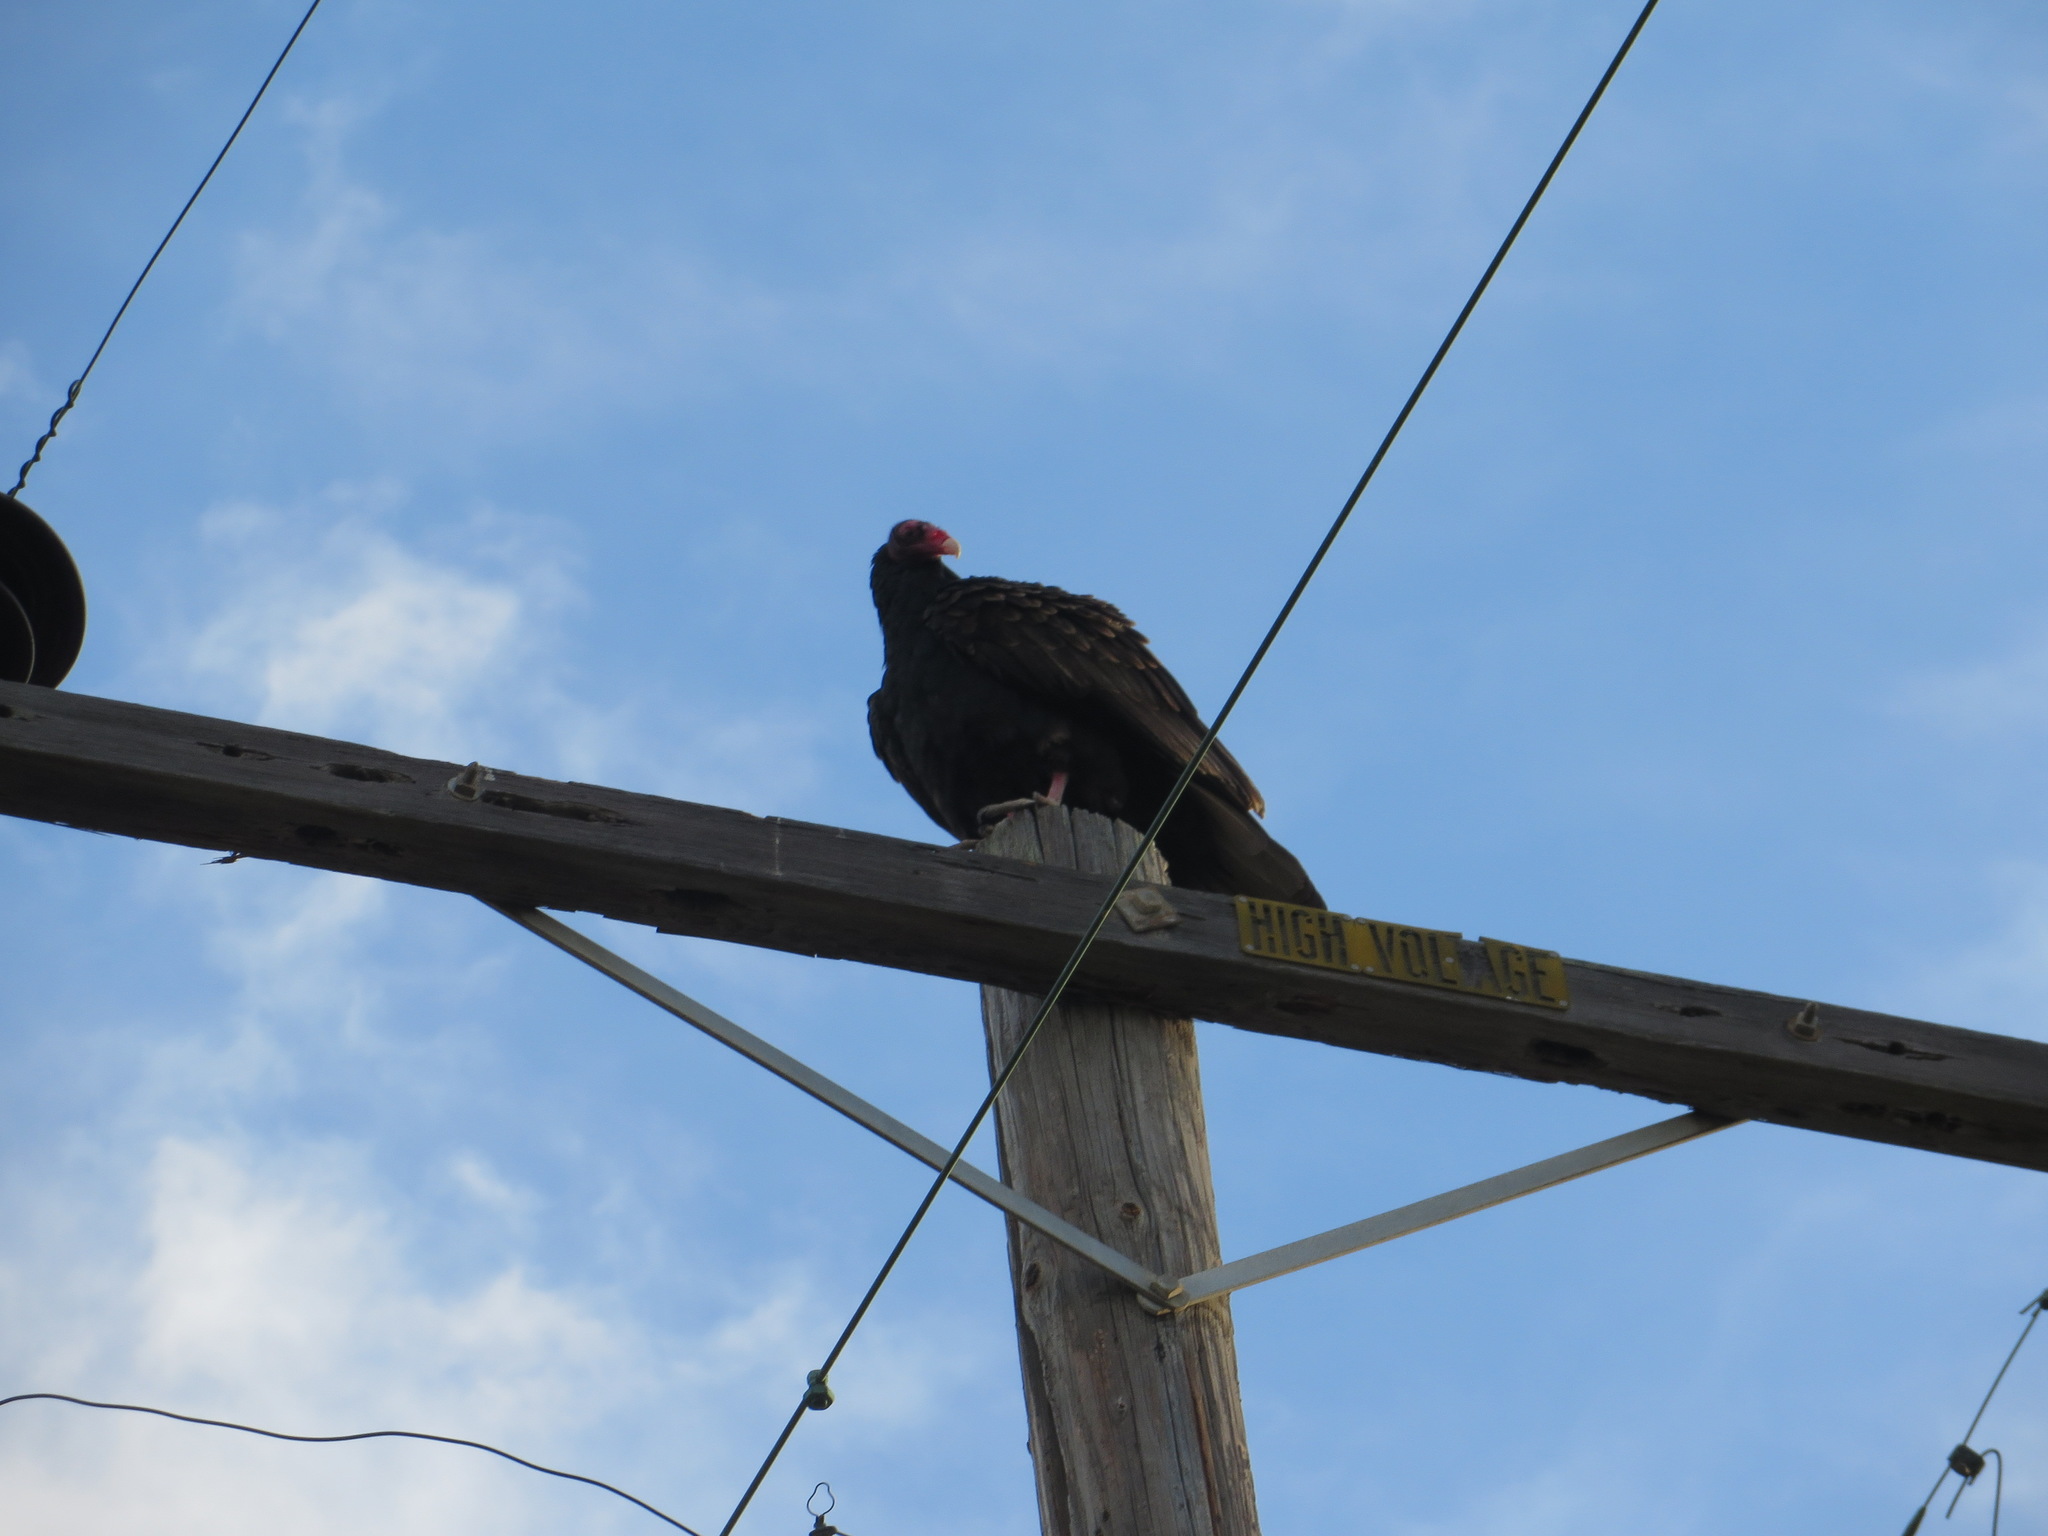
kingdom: Animalia
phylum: Chordata
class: Aves
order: Accipitriformes
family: Cathartidae
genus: Cathartes
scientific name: Cathartes aura
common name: Turkey vulture
